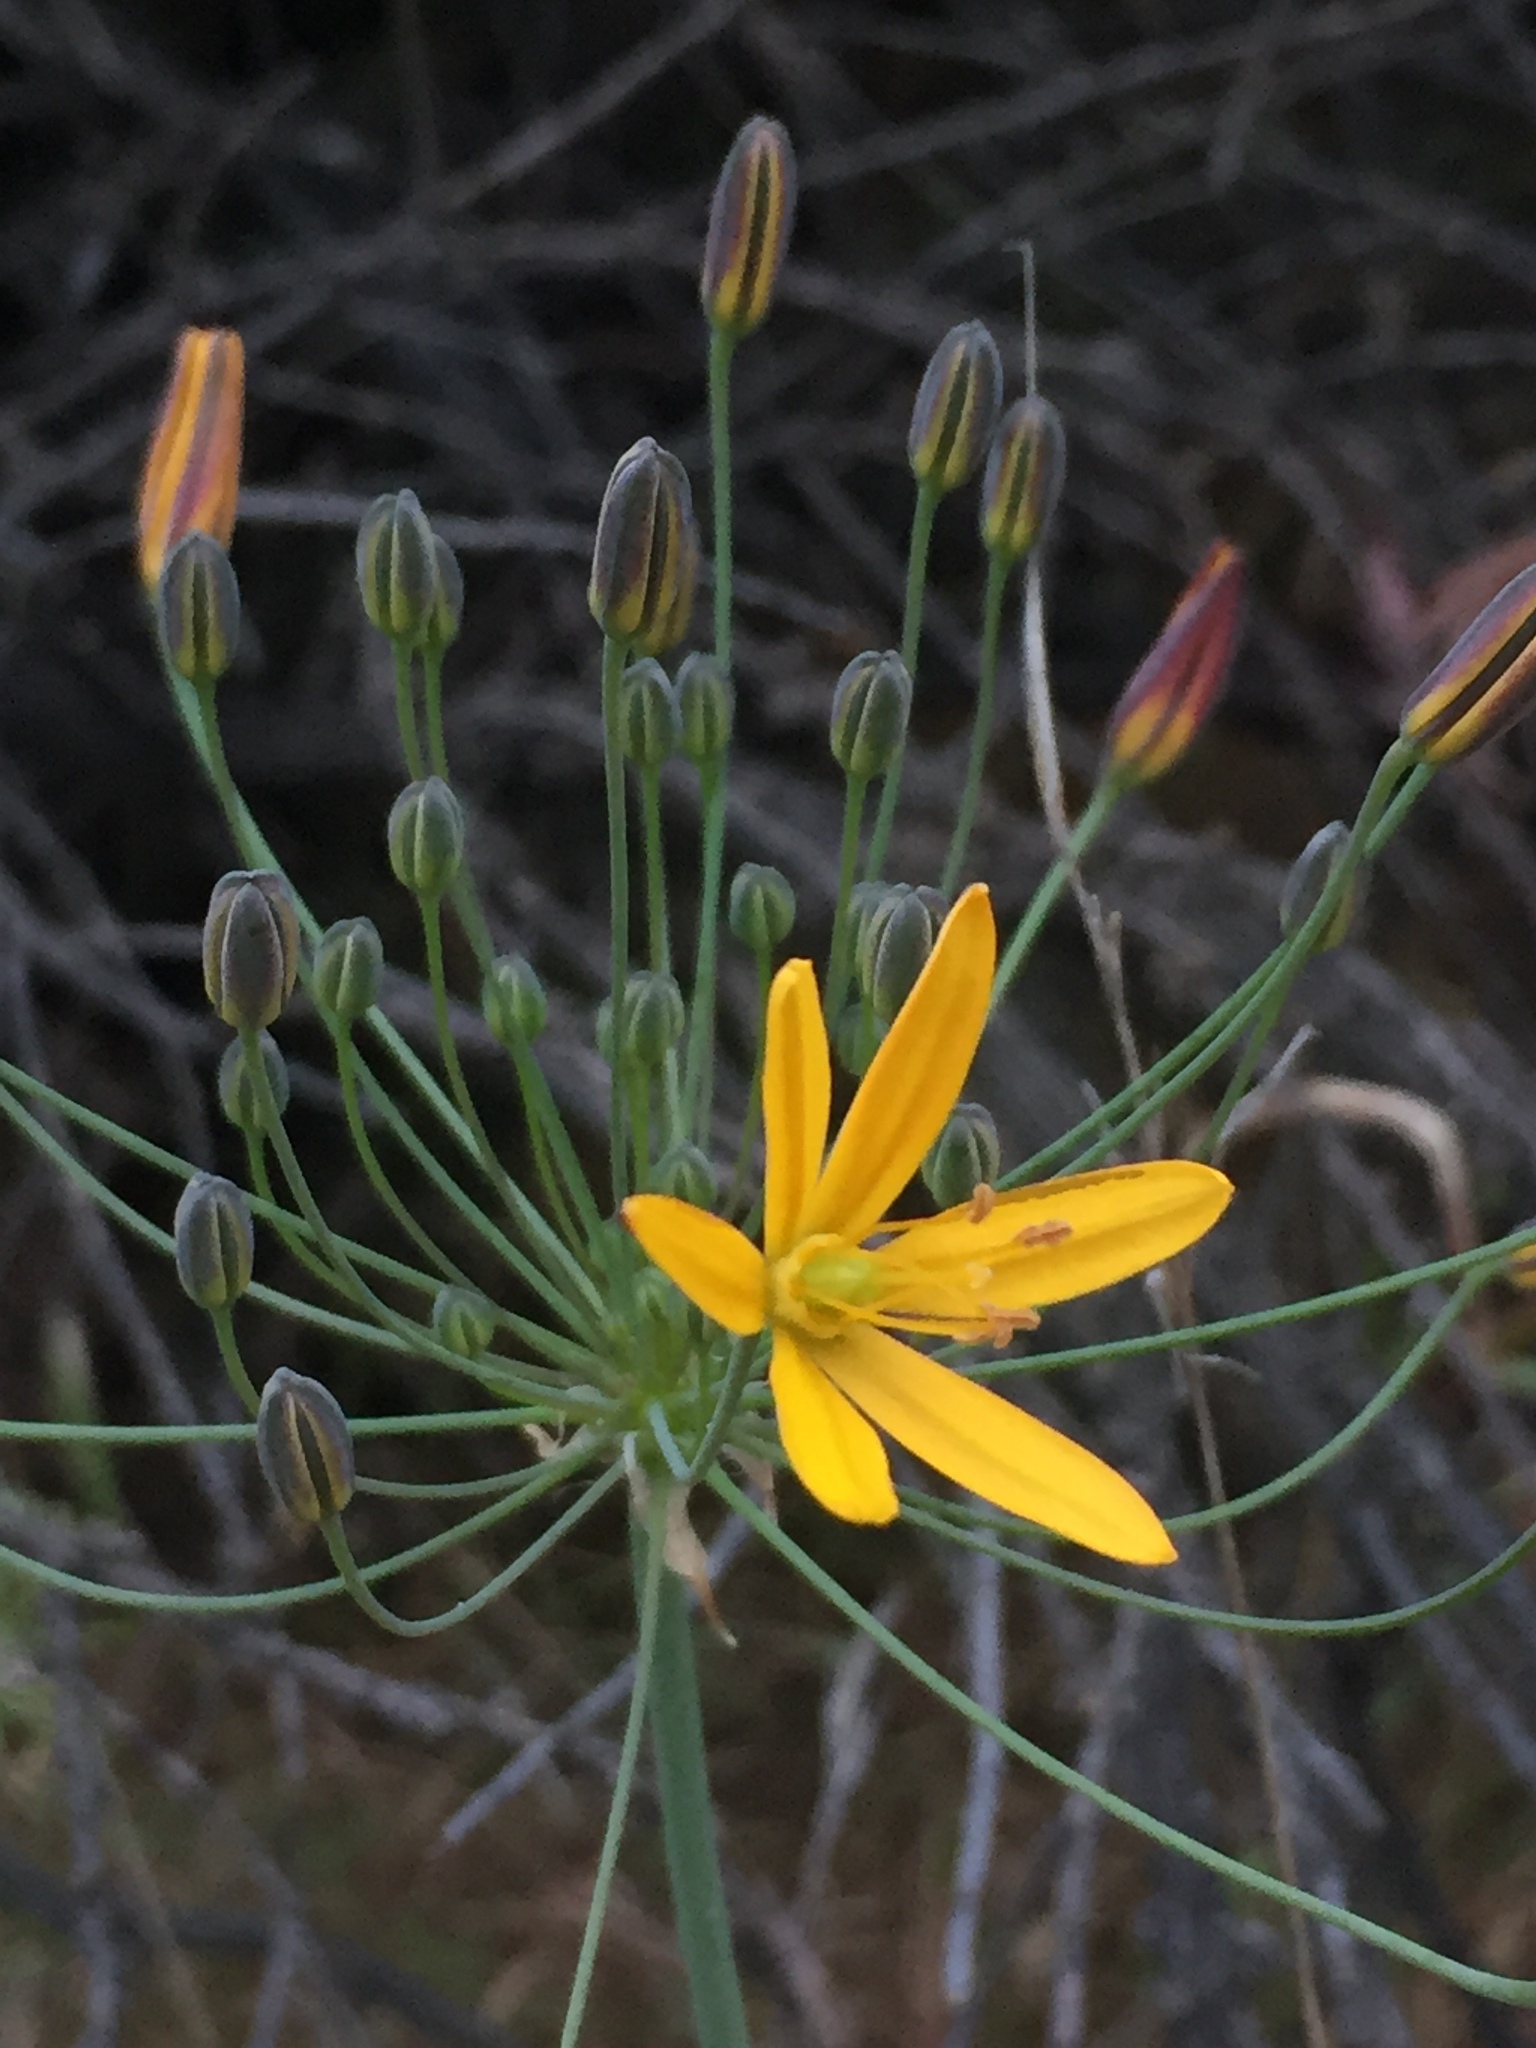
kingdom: Plantae
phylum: Tracheophyta
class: Liliopsida
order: Asparagales
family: Asparagaceae
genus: Bloomeria
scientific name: Bloomeria crocea
